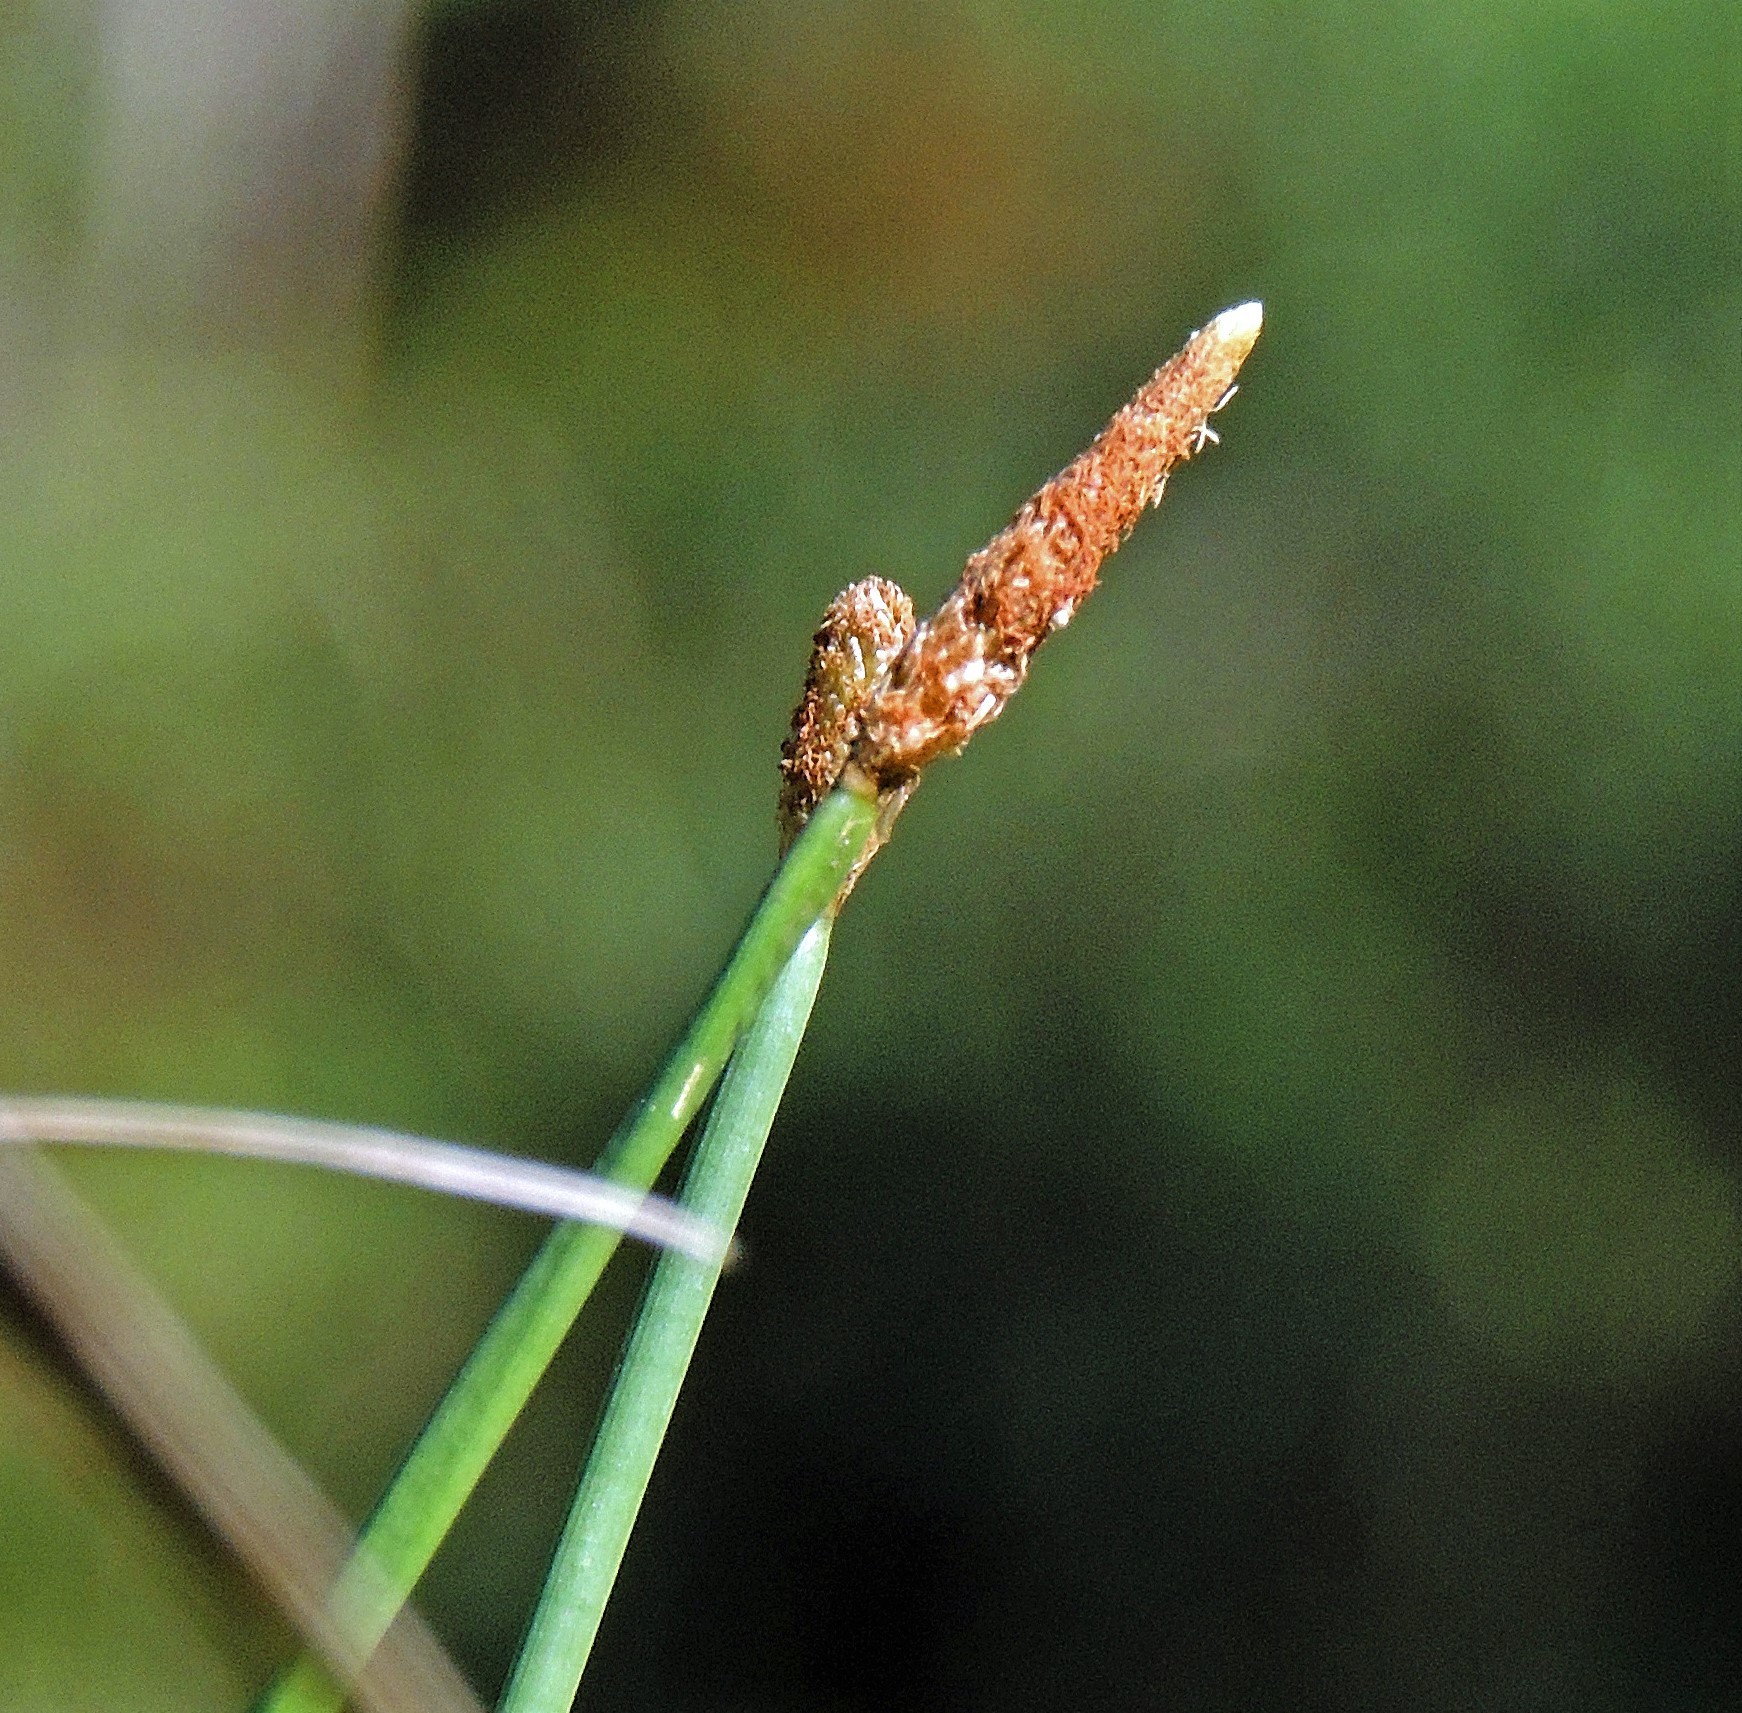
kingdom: Plantae
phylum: Tracheophyta
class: Liliopsida
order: Poales
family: Cyperaceae
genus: Eleocharis
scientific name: Eleocharis elegans
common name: Elegant spike-rush
